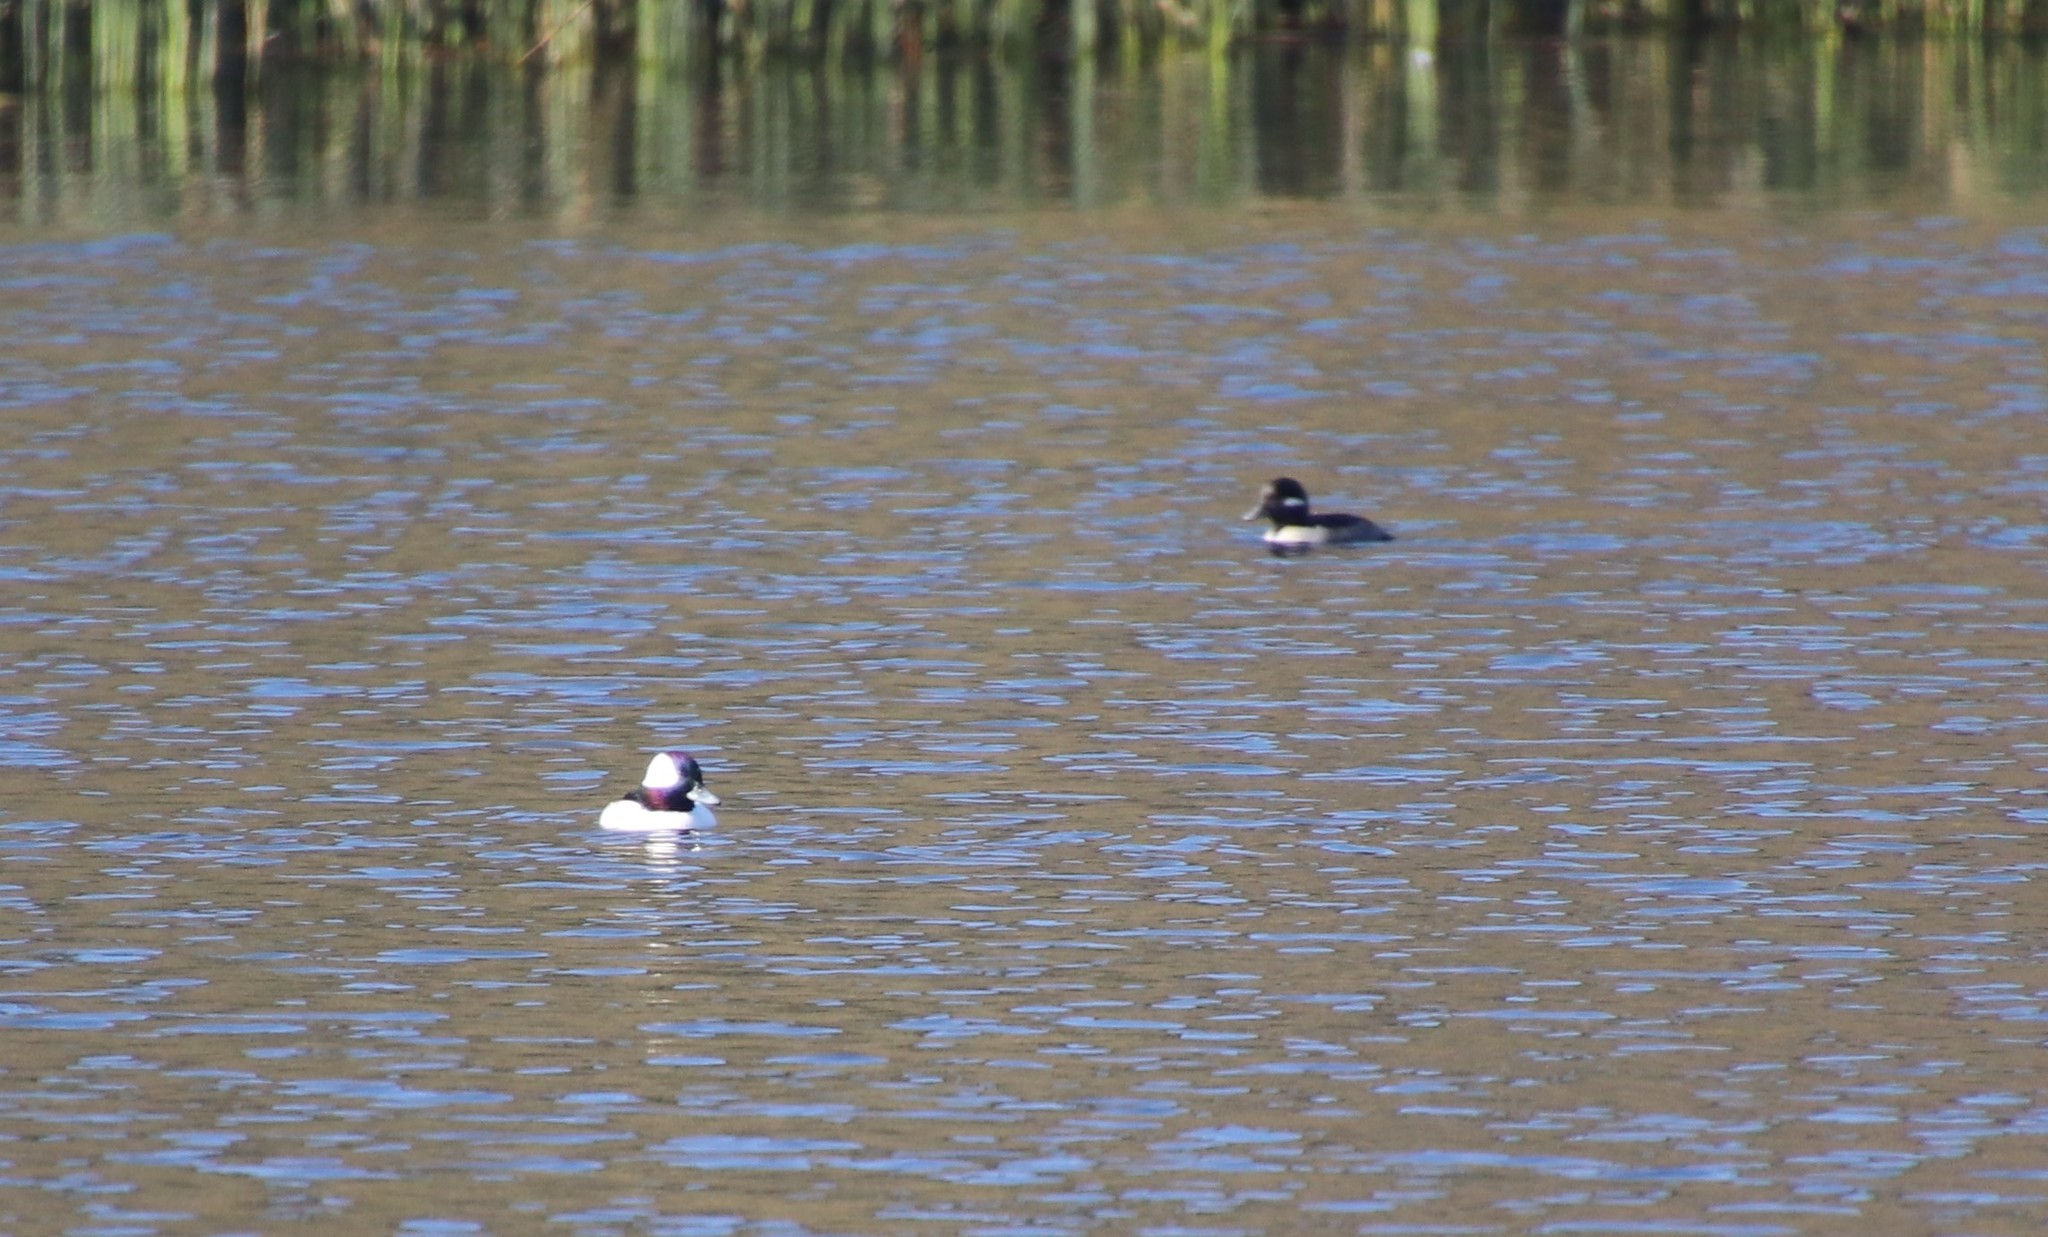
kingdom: Animalia
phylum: Chordata
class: Aves
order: Anseriformes
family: Anatidae
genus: Bucephala
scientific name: Bucephala albeola
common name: Bufflehead
